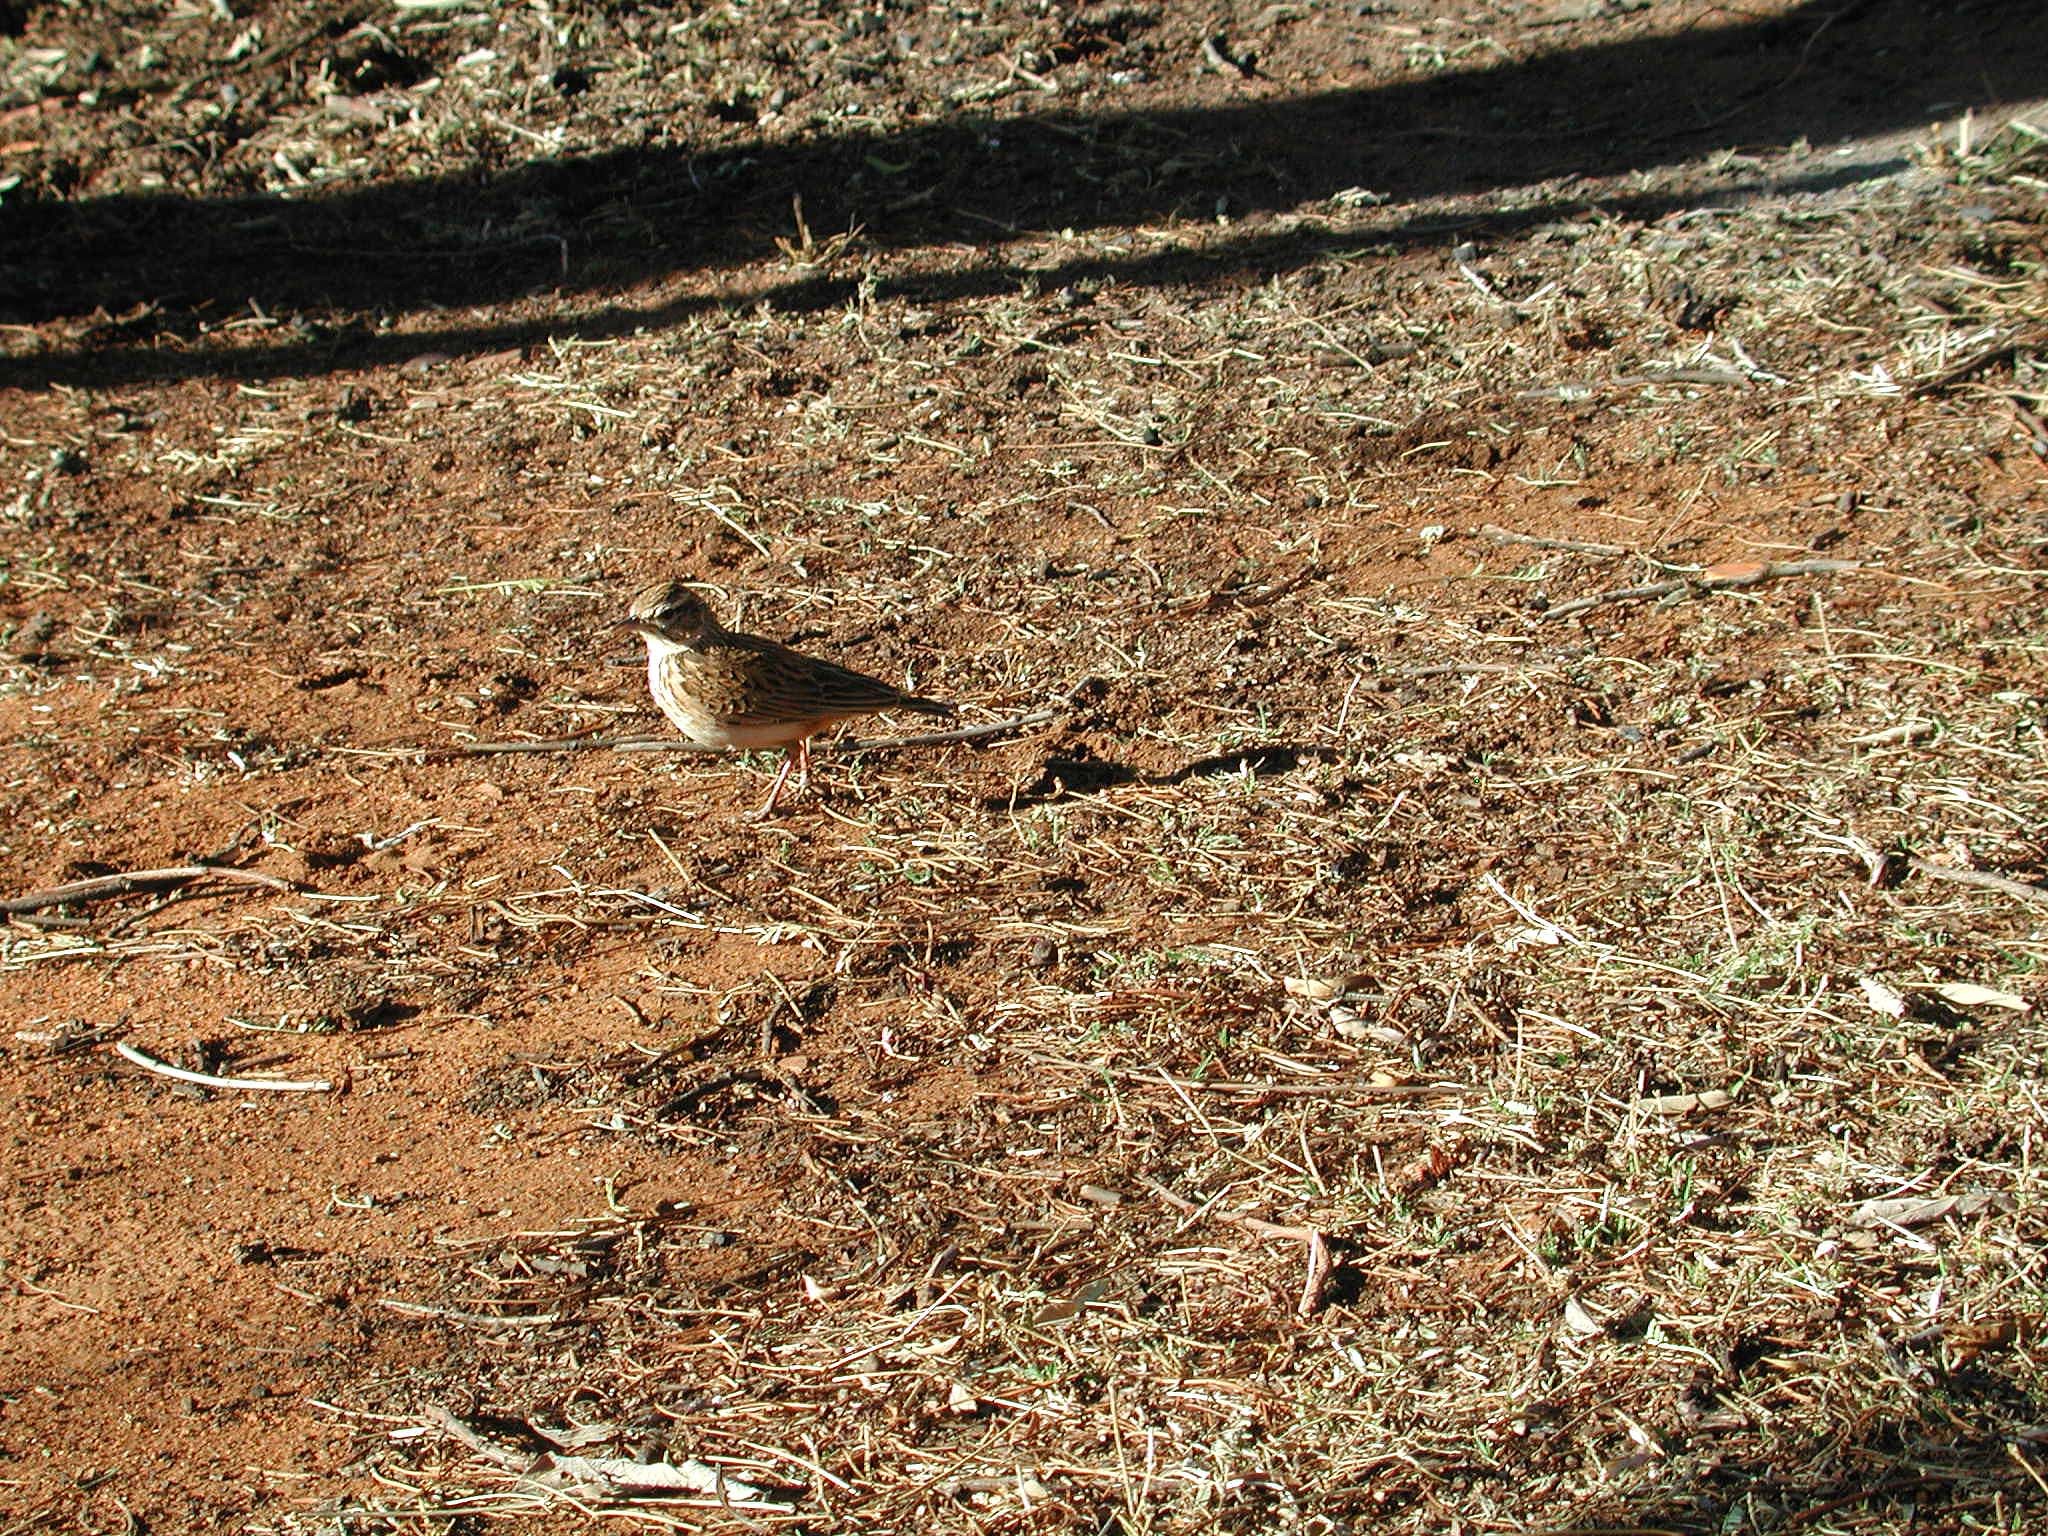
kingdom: Animalia
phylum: Chordata
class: Aves
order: Passeriformes
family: Alaudidae
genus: Calendulauda
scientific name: Calendulauda sabota
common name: Sabota lark
